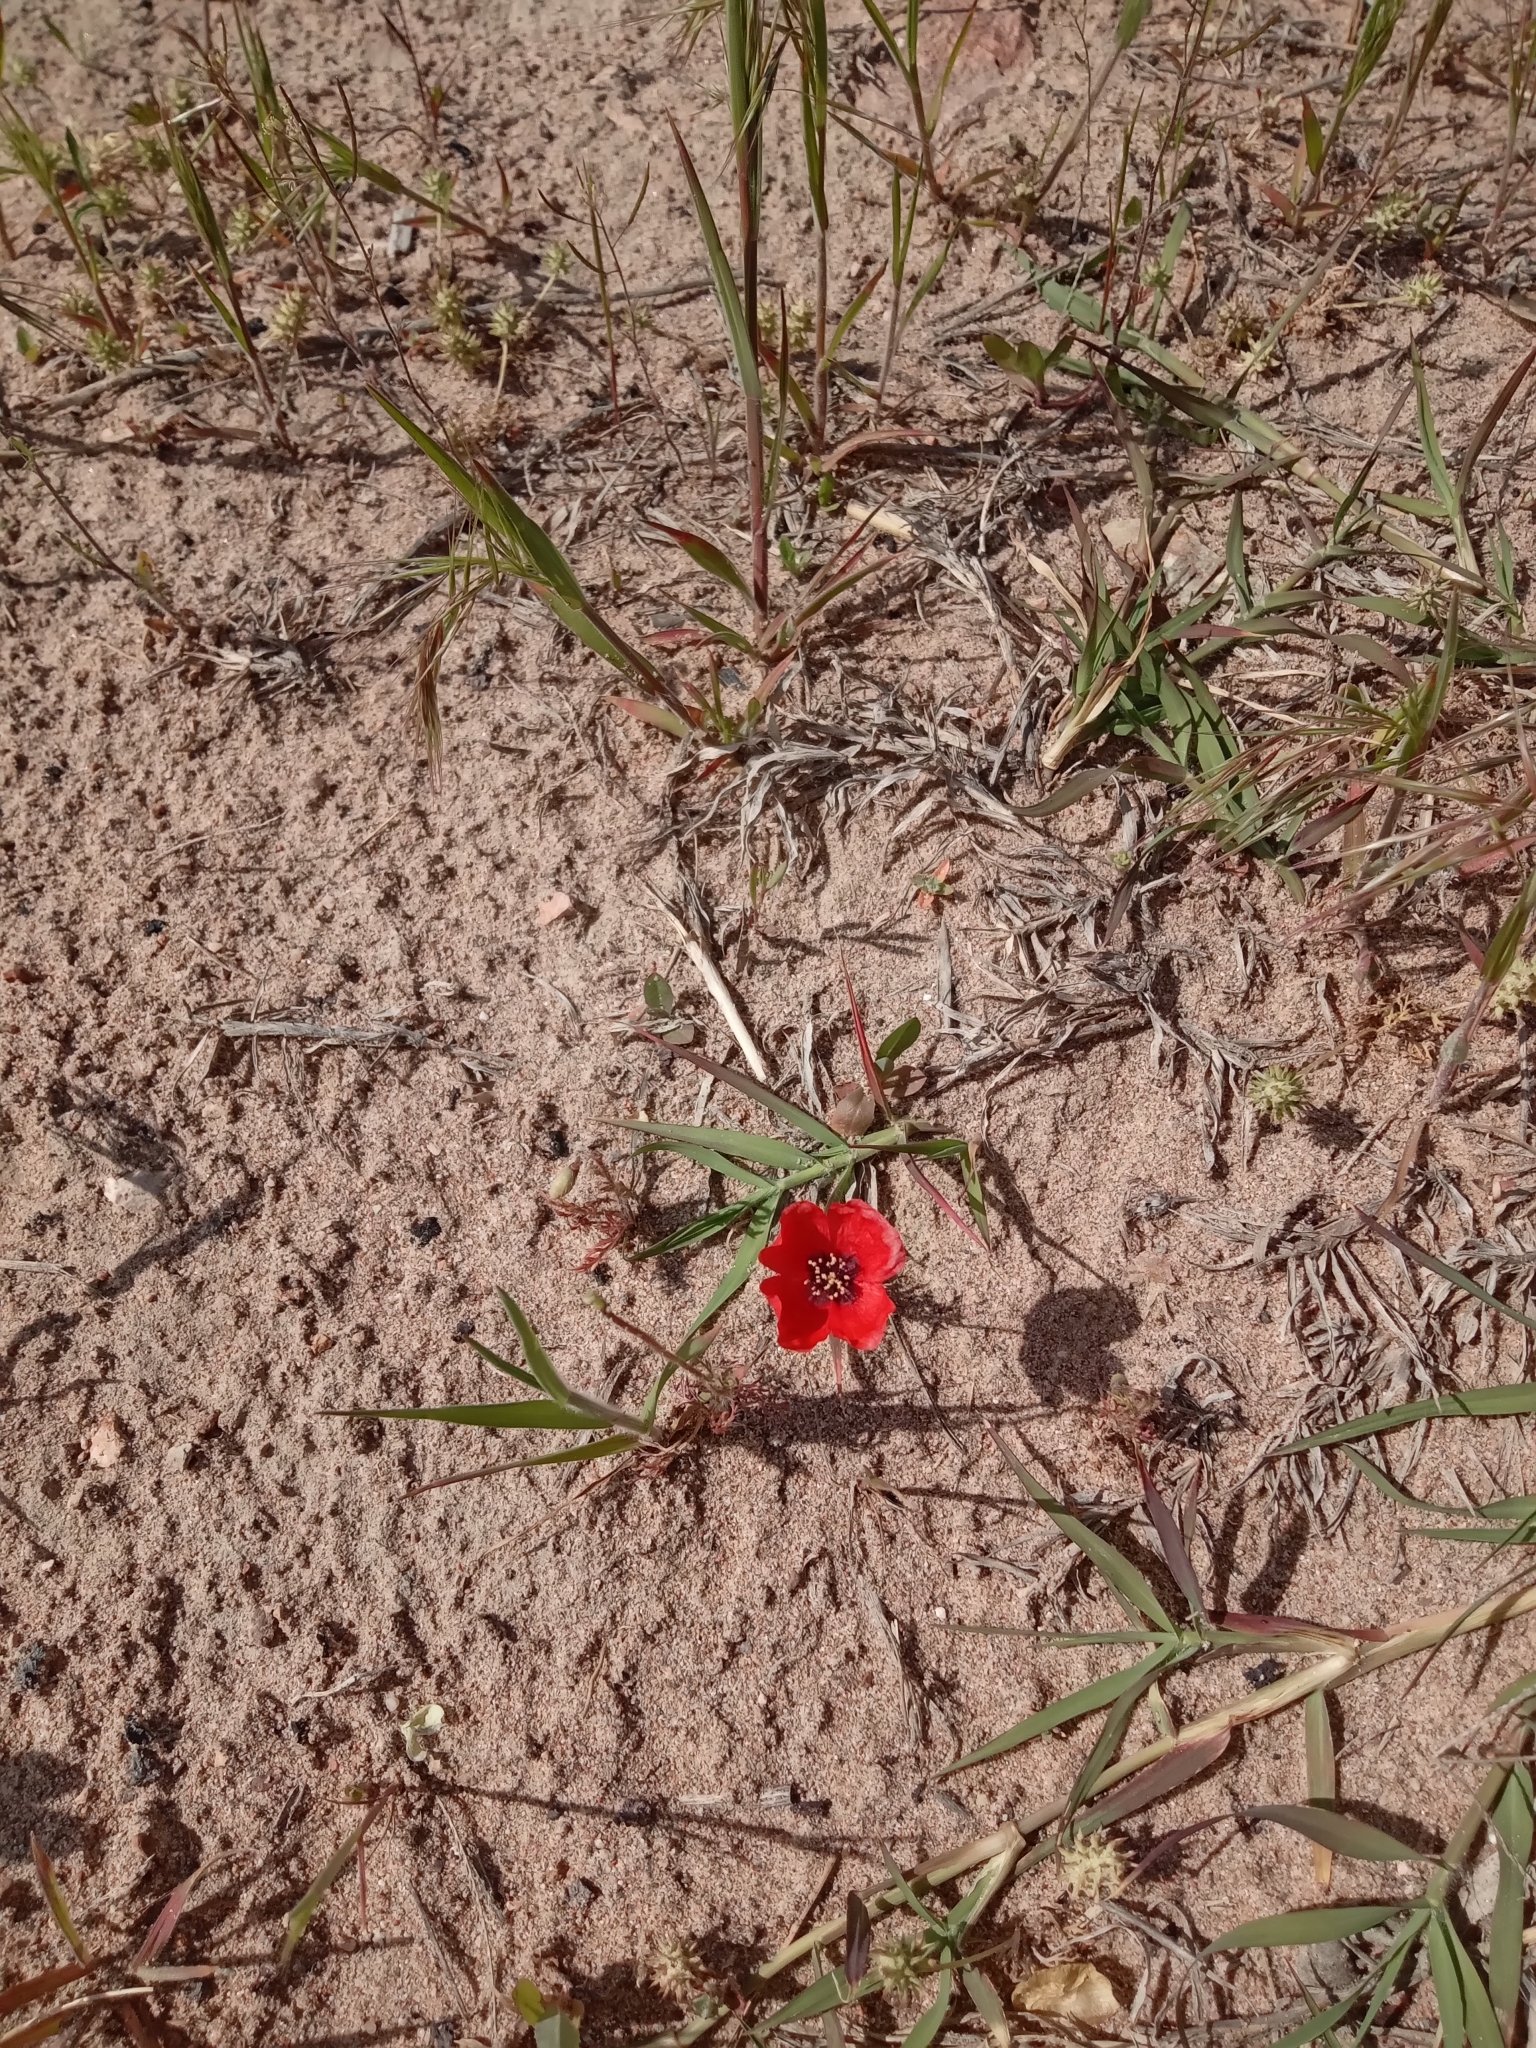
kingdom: Plantae
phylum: Tracheophyta
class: Magnoliopsida
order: Ranunculales
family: Papaveraceae
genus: Roemeria
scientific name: Roemeria refracta
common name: Spotted asian poppy
